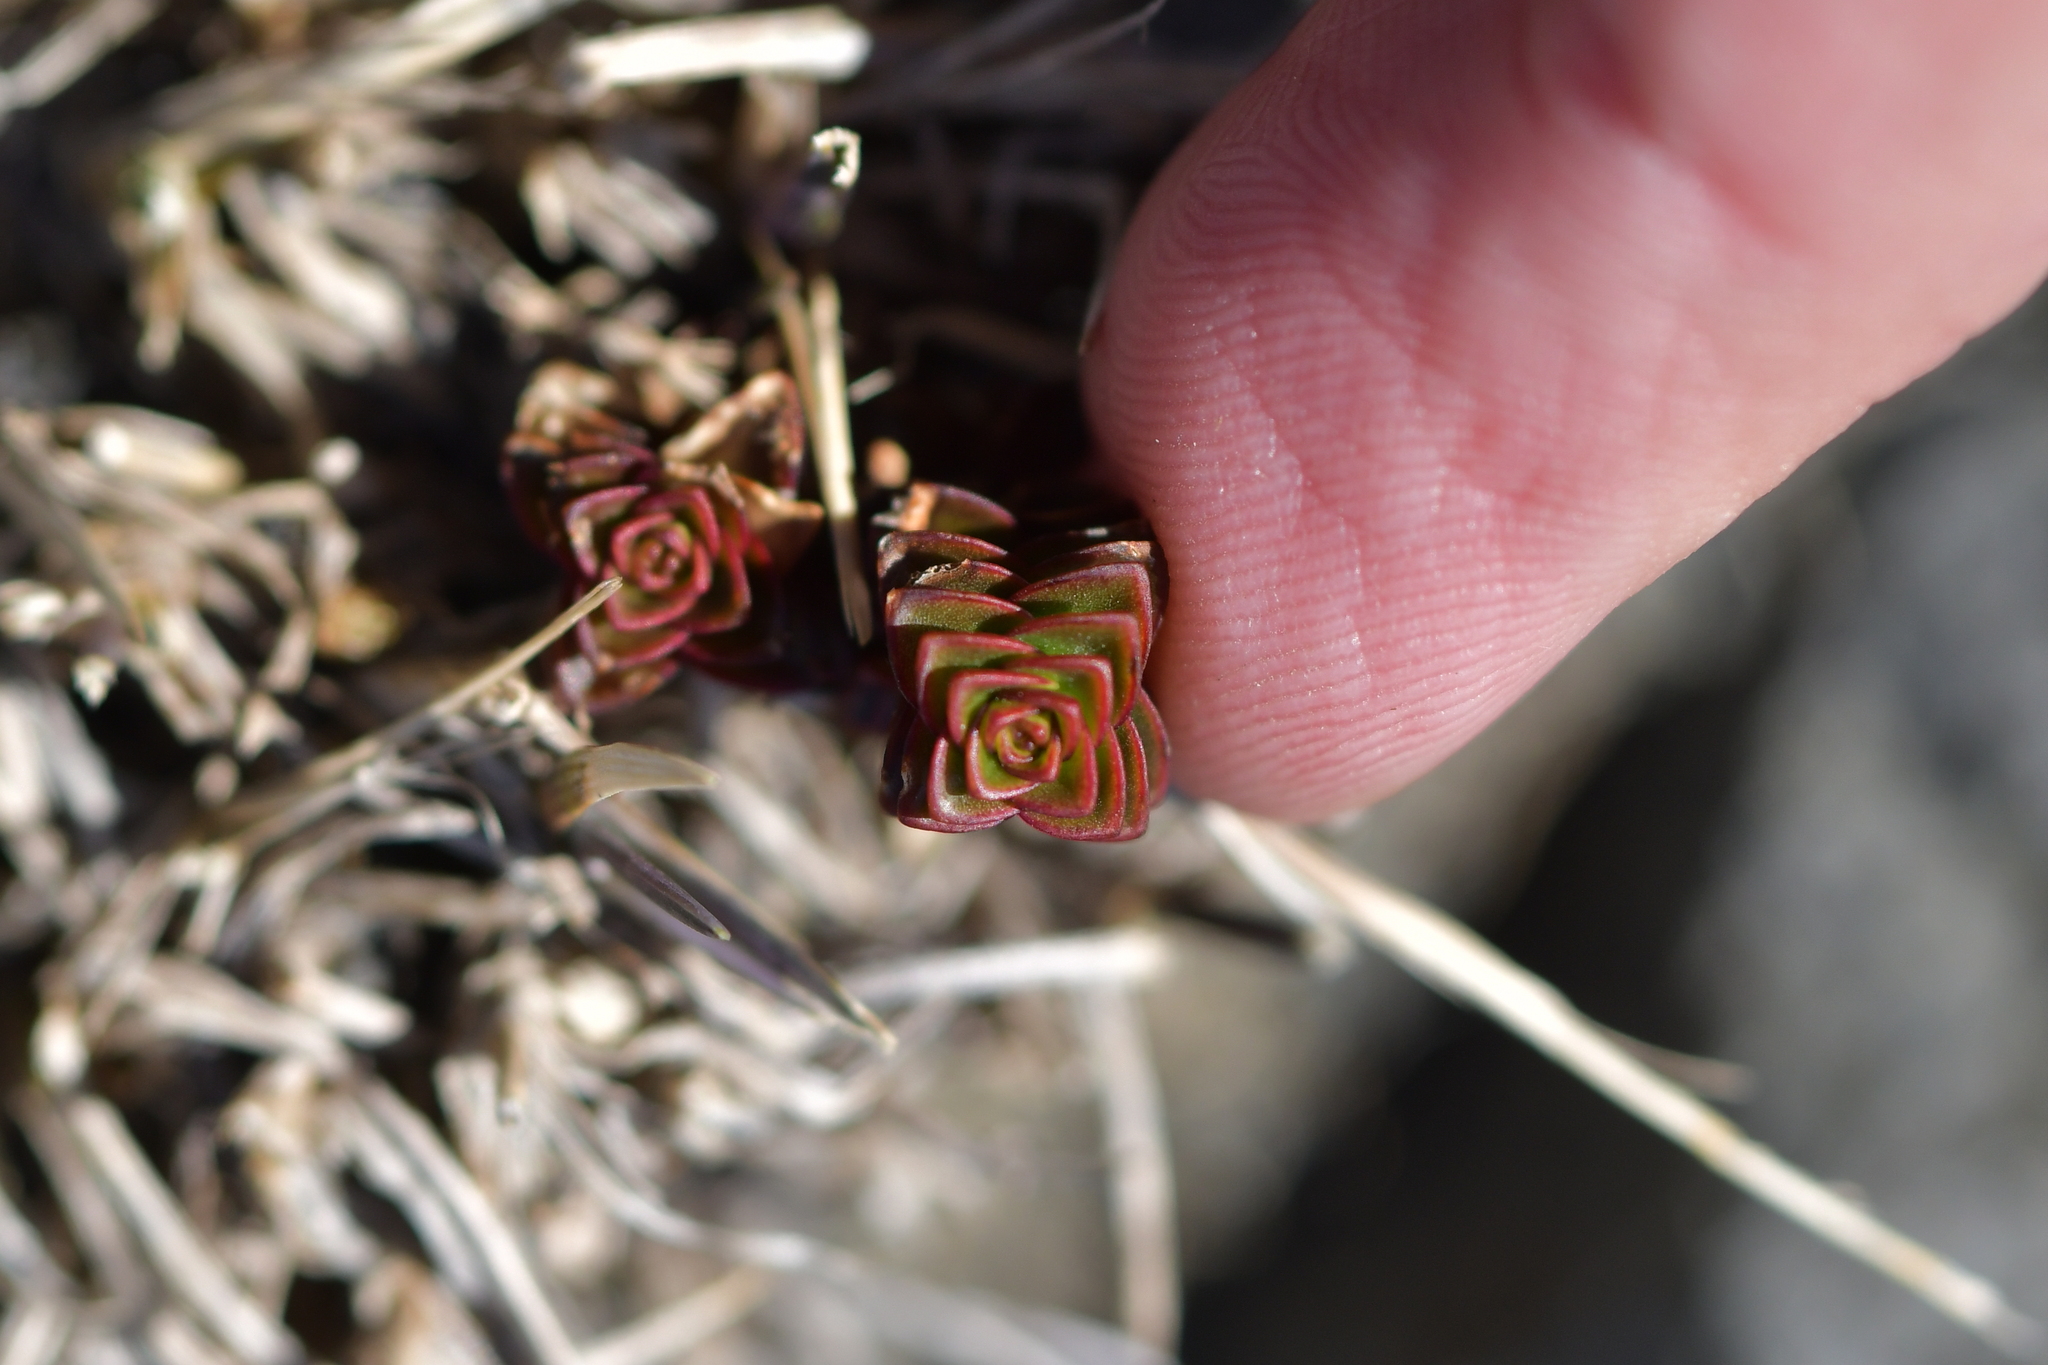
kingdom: Plantae
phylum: Tracheophyta
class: Magnoliopsida
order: Lamiales
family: Plantaginaceae
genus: Veronica
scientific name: Veronica epacridea
